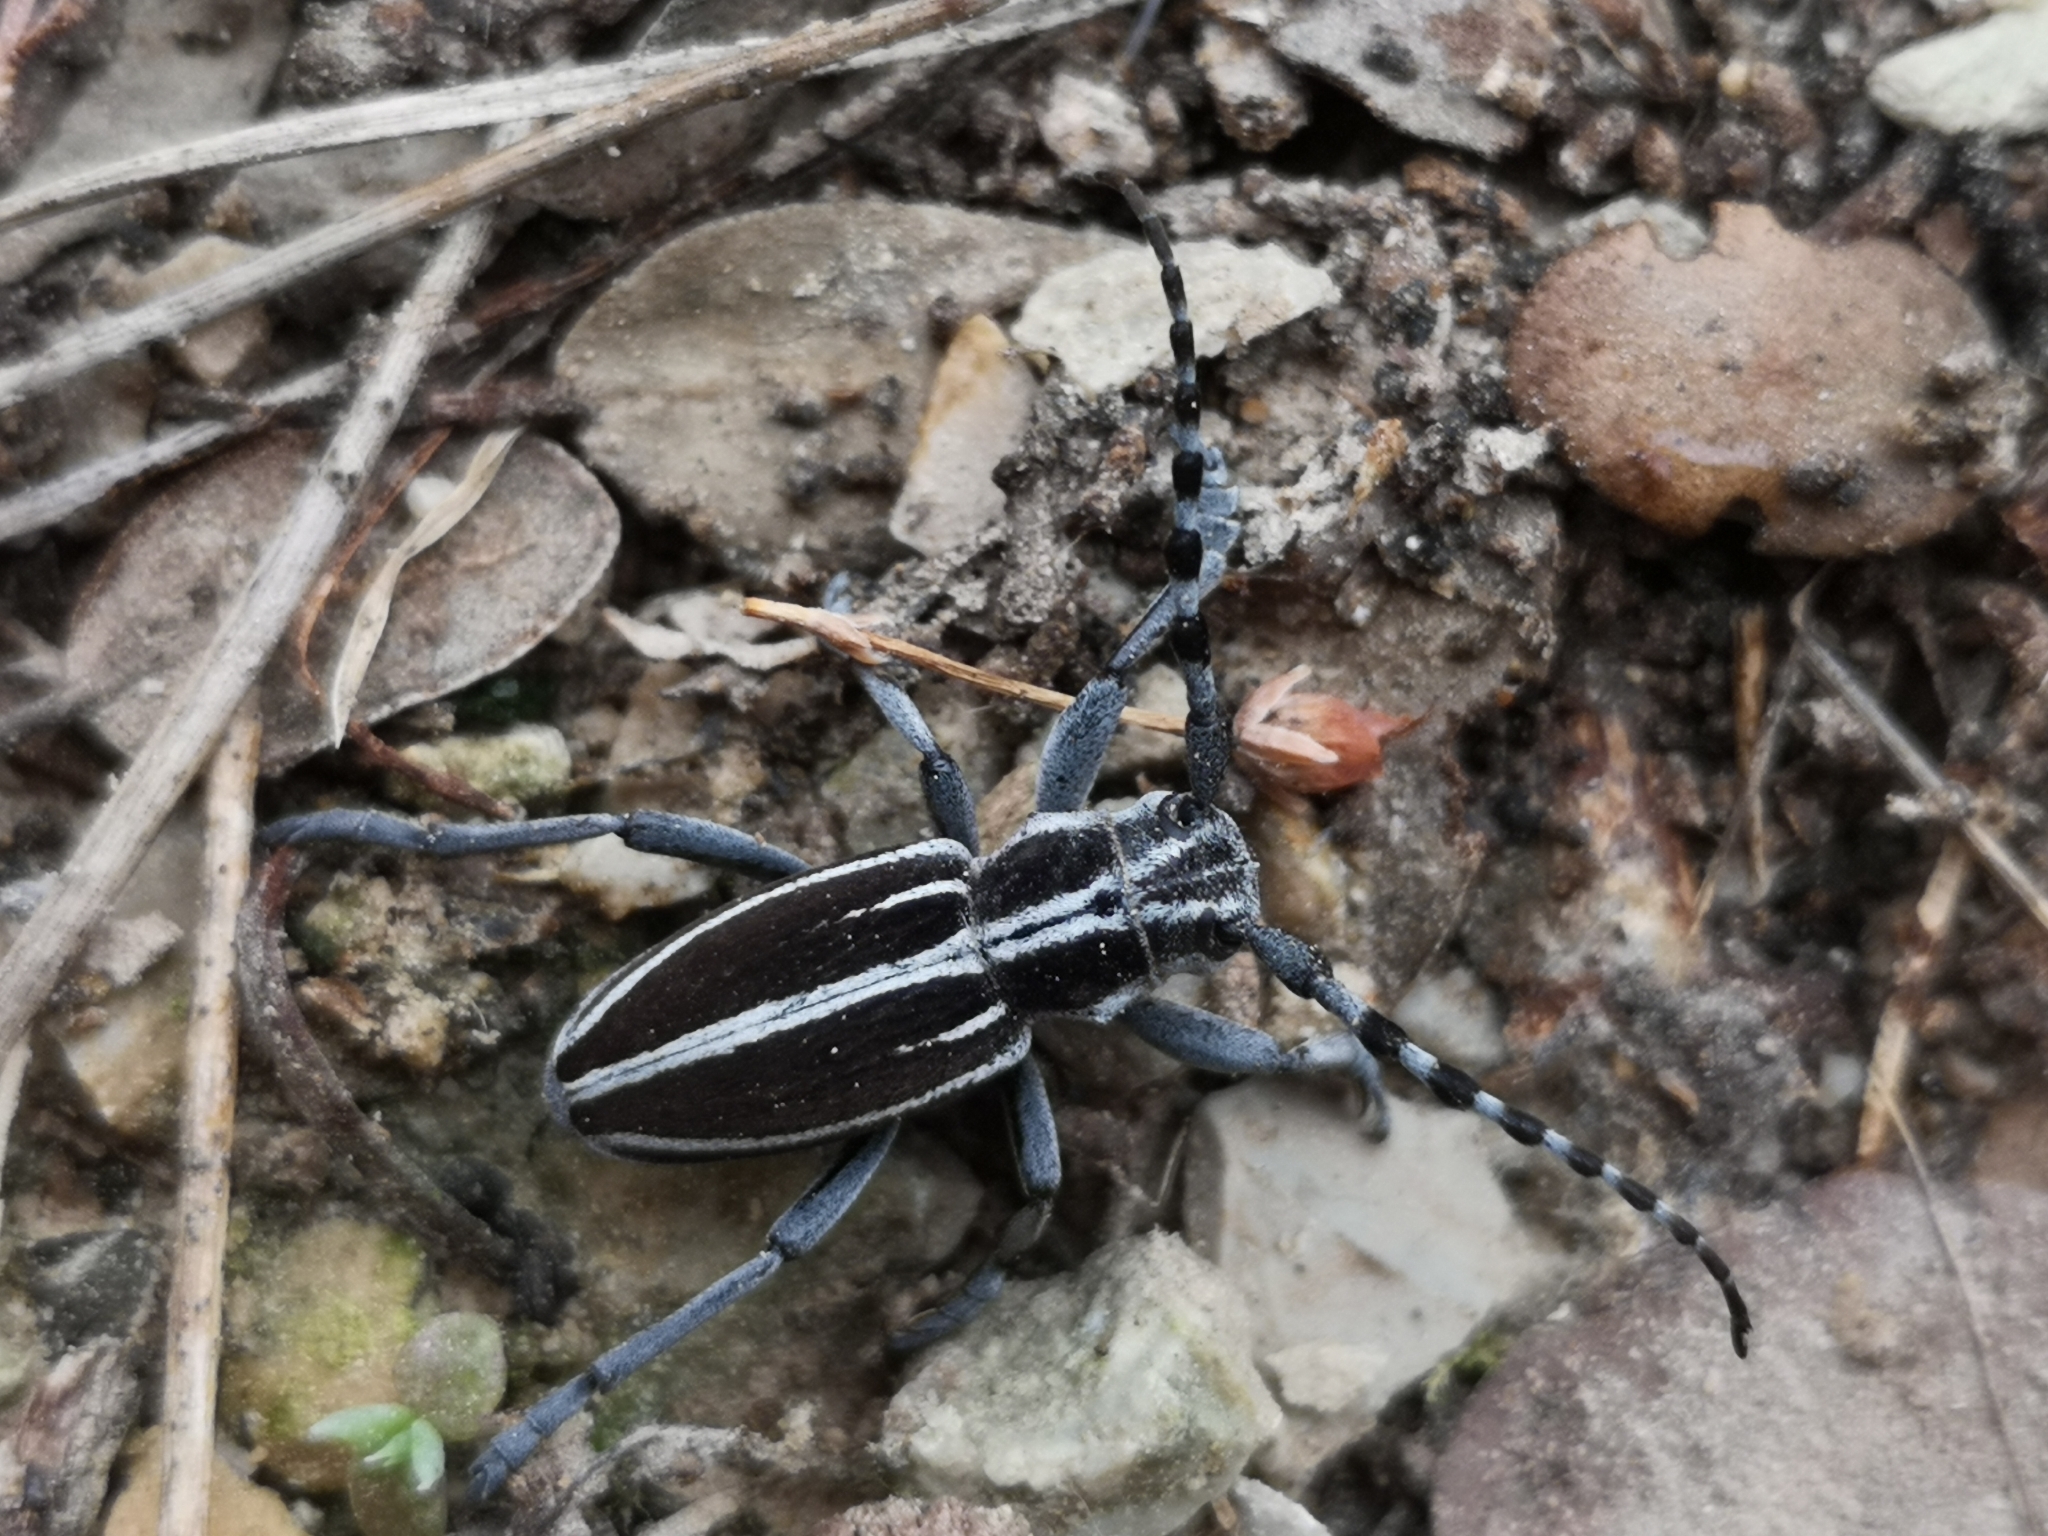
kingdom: Animalia
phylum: Arthropoda
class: Insecta
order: Coleoptera
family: Cerambycidae
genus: Iberodorcadion
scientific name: Iberodorcadion molitor
